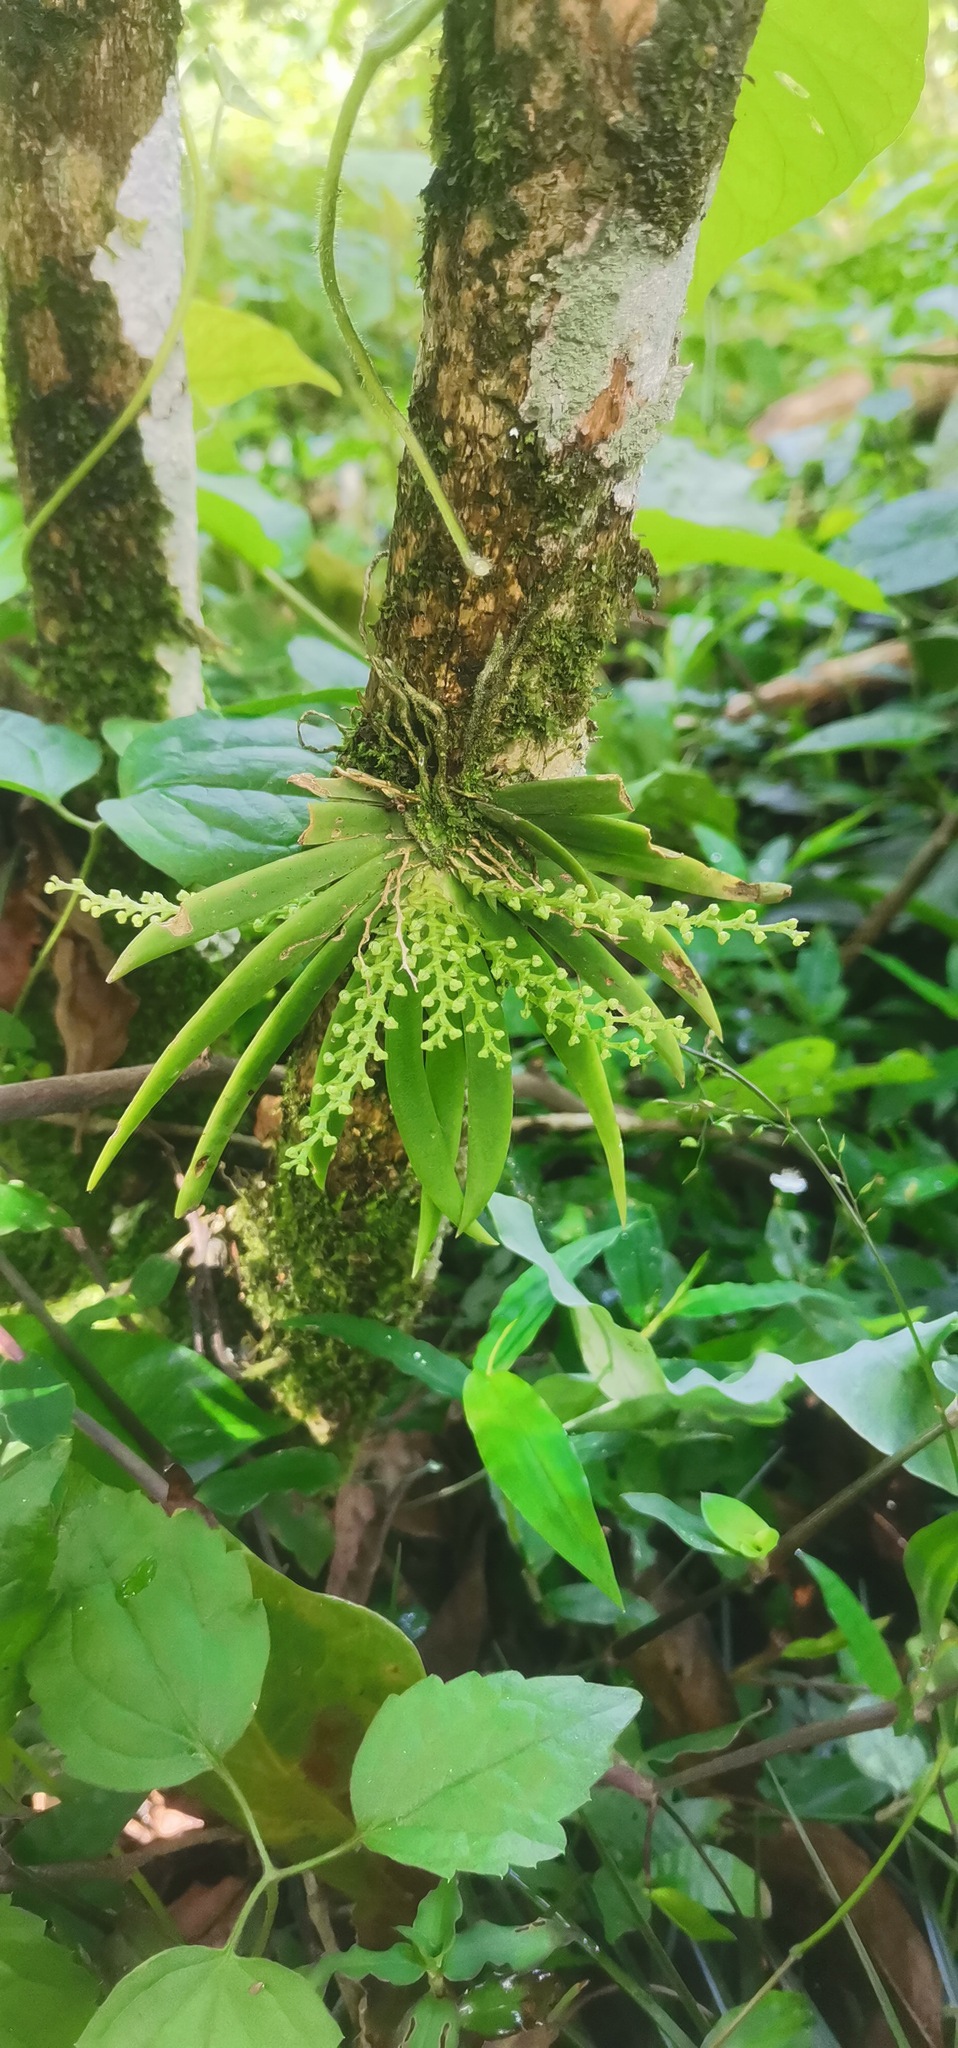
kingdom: Plantae
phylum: Tracheophyta
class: Liliopsida
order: Asparagales
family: Orchidaceae
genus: Ornithocephalus
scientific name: Ornithocephalus inflexus
